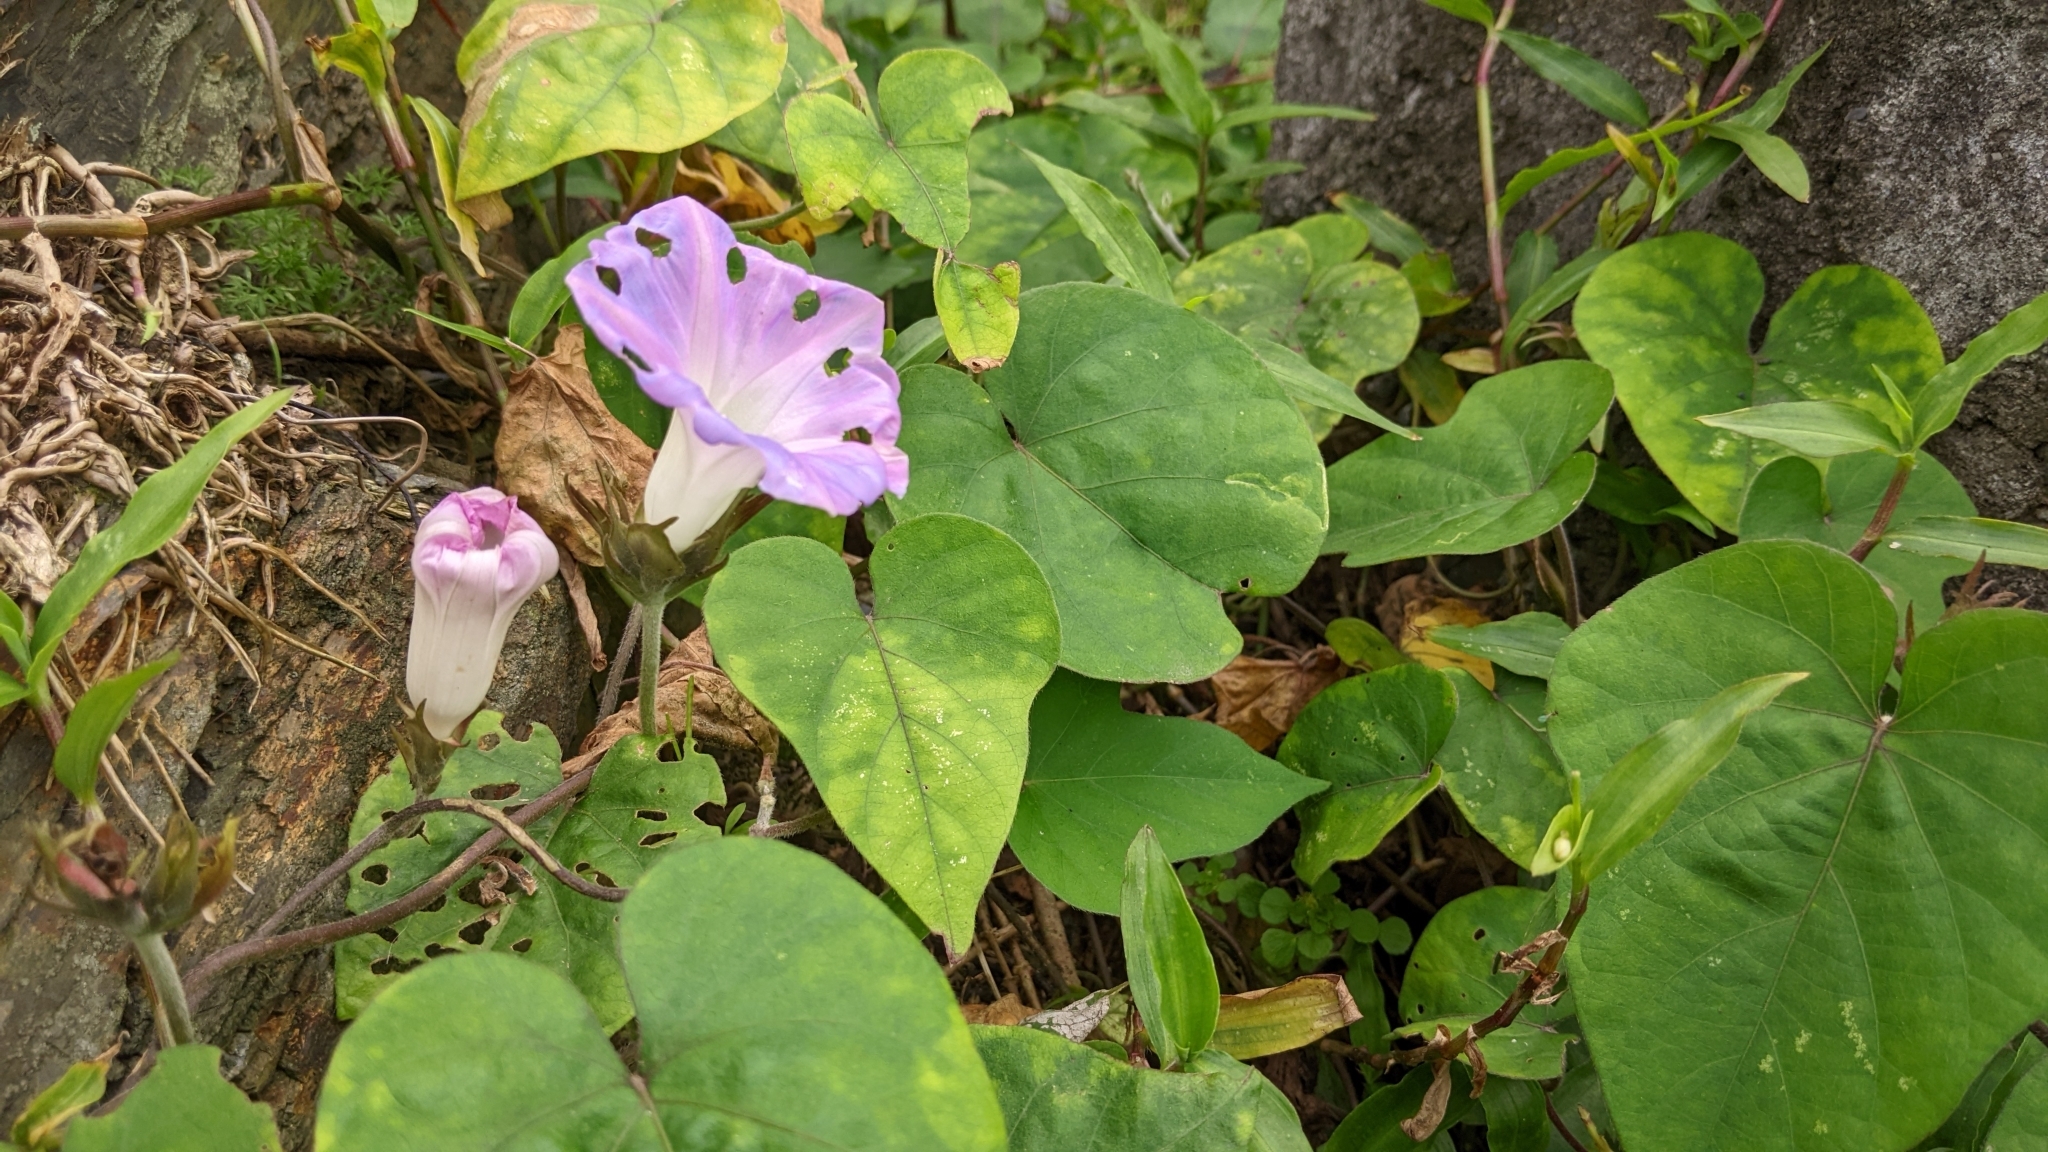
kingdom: Plantae
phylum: Tracheophyta
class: Magnoliopsida
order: Solanales
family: Convolvulaceae
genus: Ipomoea
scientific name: Ipomoea indica
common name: Blue dawnflower
